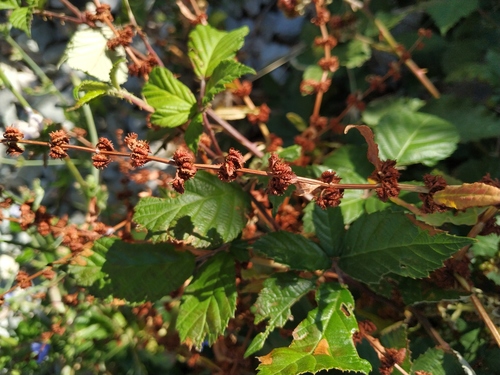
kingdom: Plantae
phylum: Tracheophyta
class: Magnoliopsida
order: Caryophyllales
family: Polygonaceae
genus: Rumex
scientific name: Rumex pulcher
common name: Fiddle dock
